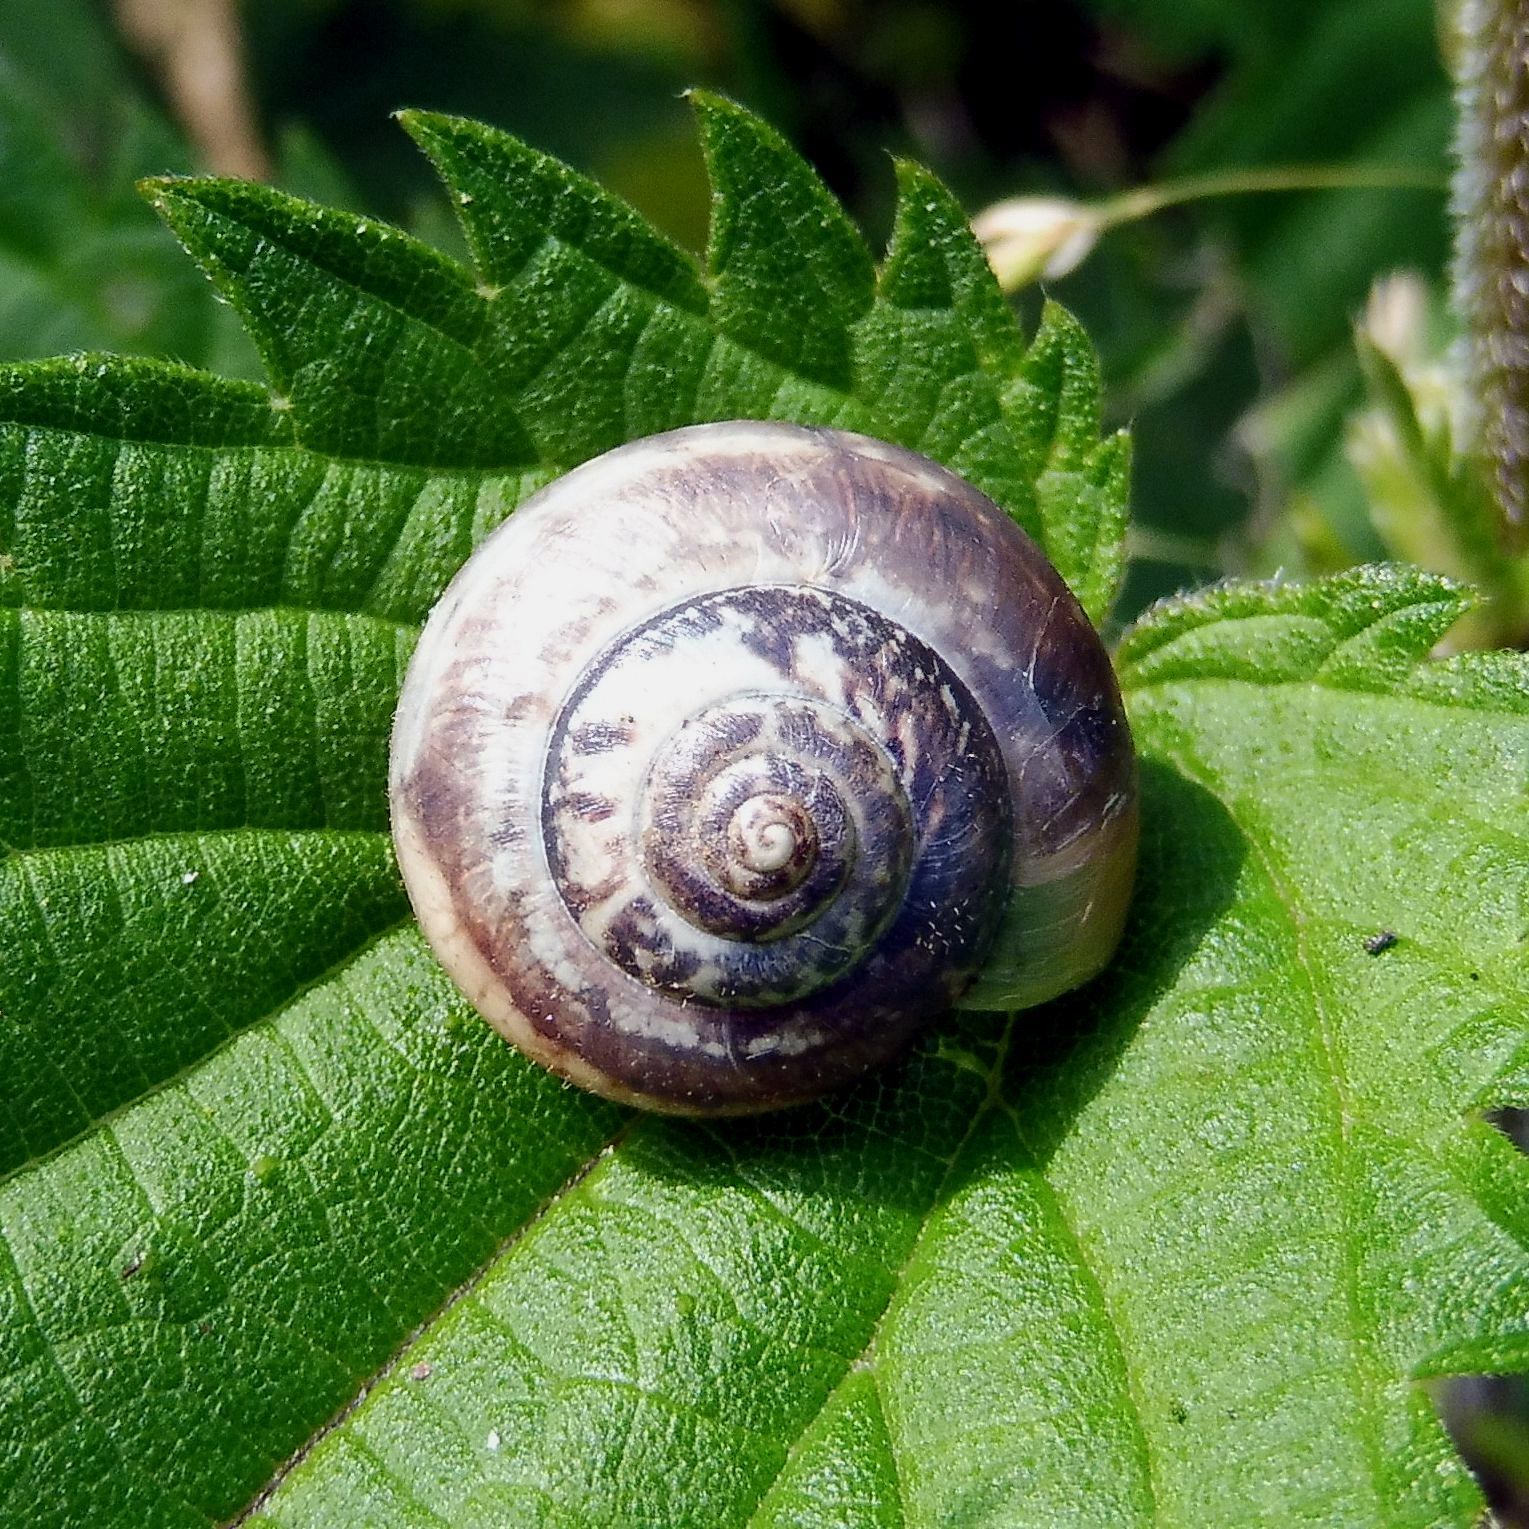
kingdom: Animalia
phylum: Mollusca
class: Gastropoda
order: Stylommatophora
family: Hygromiidae
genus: Monacha
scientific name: Monacha cantiana
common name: Kentish snail
